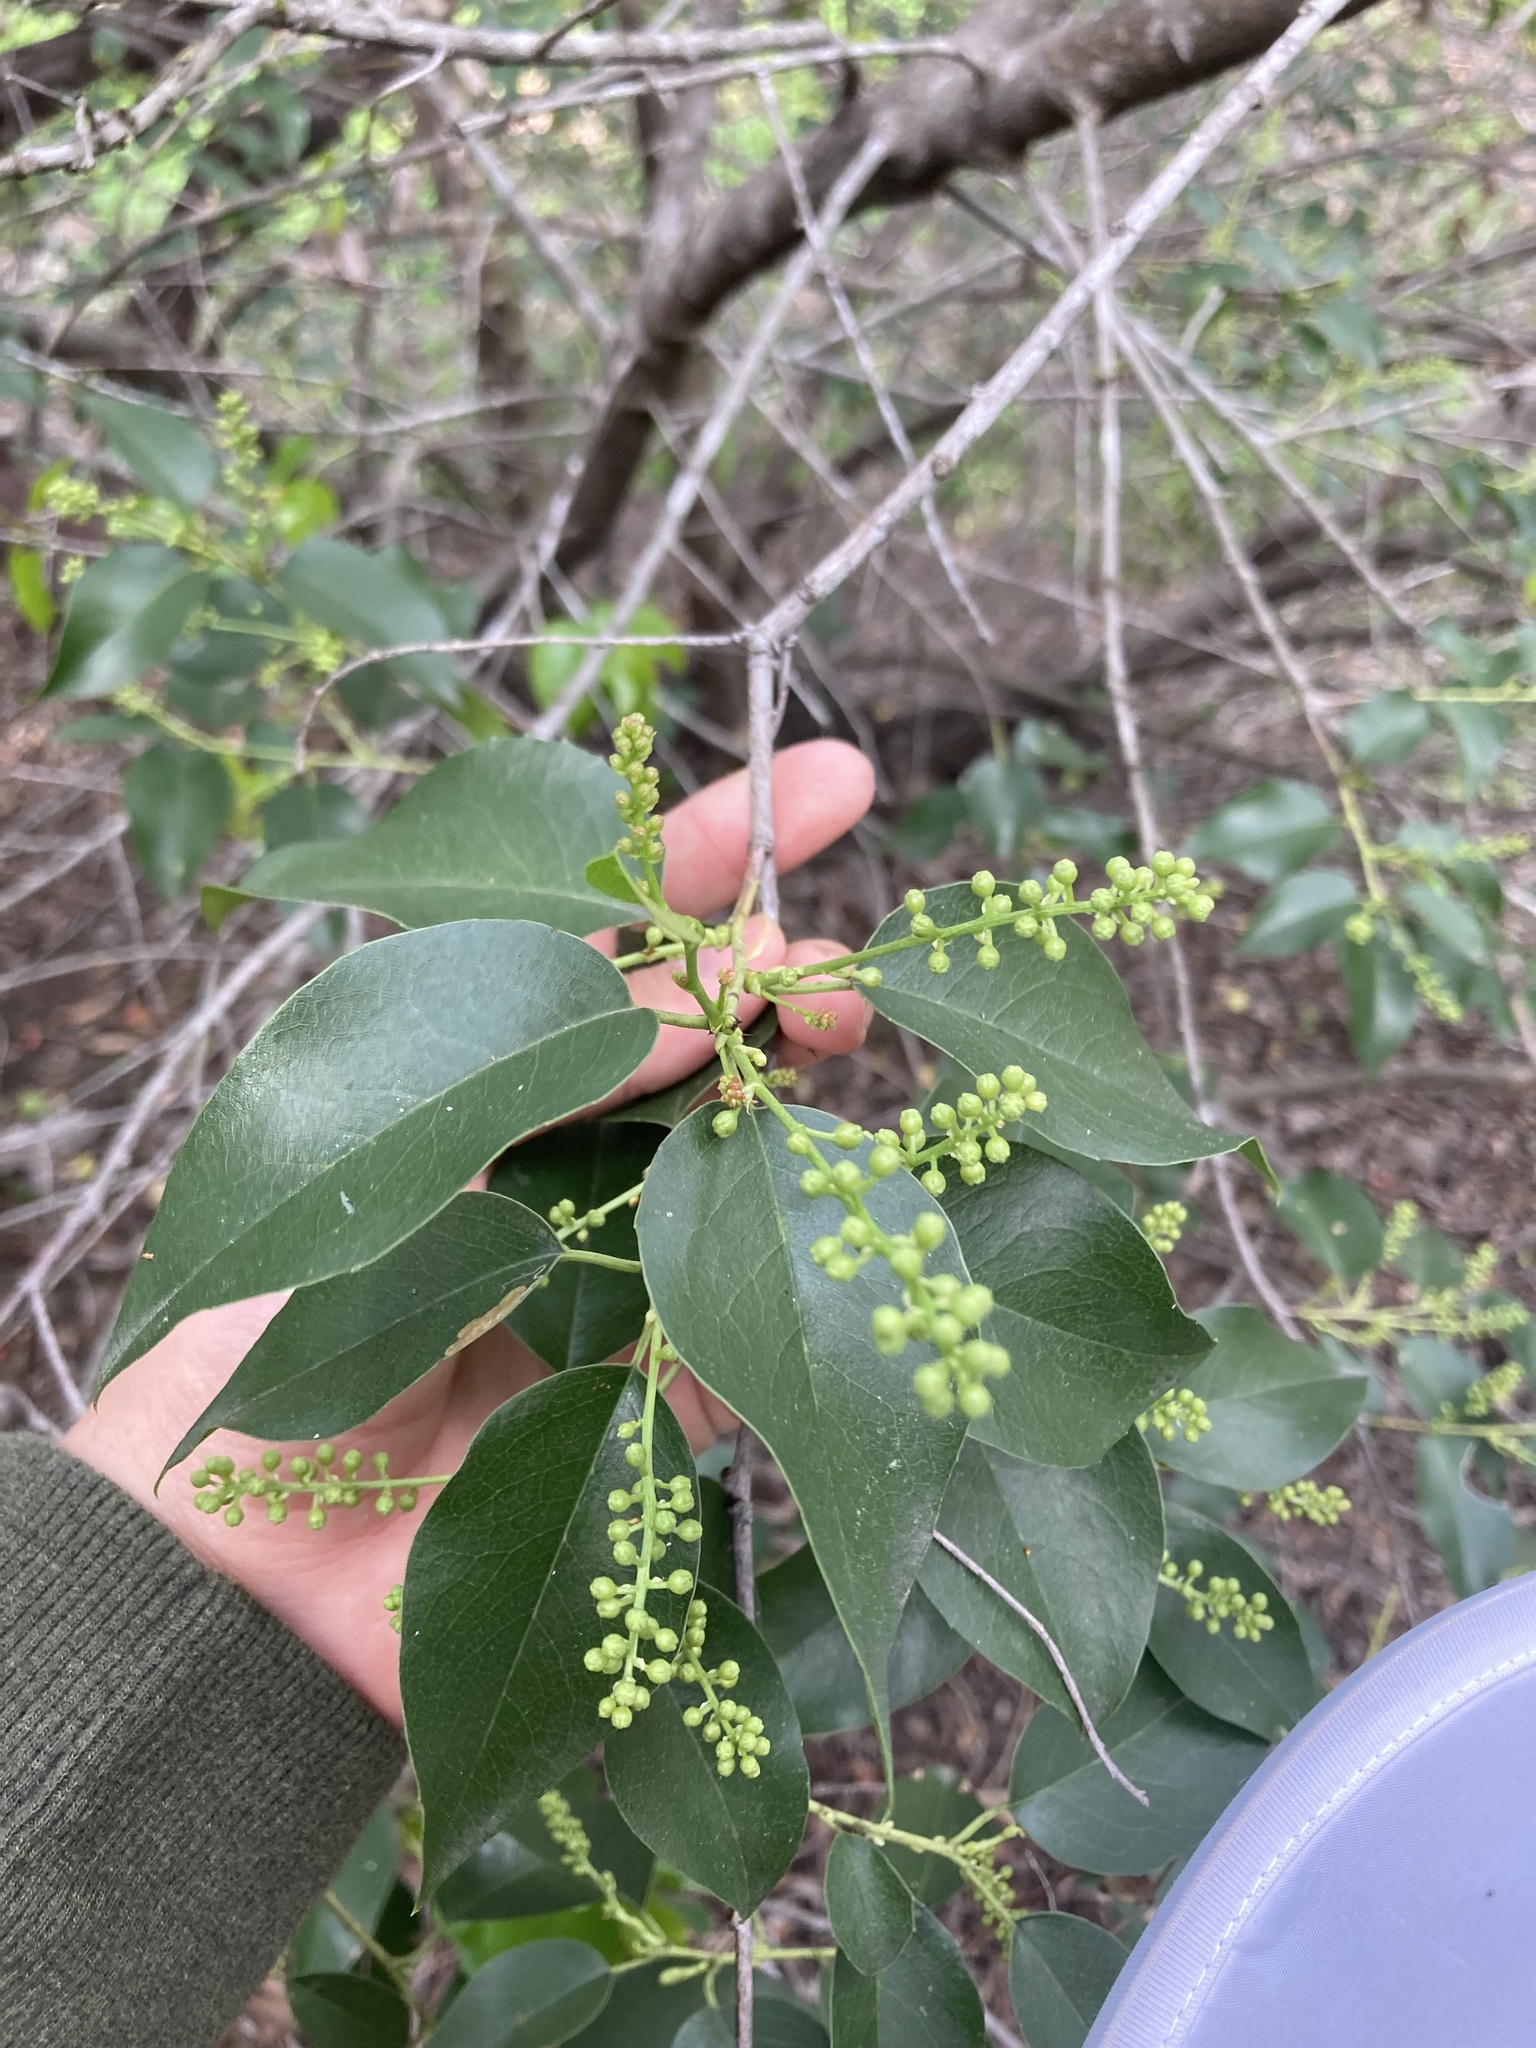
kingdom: Plantae
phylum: Tracheophyta
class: Magnoliopsida
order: Rosales
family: Rosaceae
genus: Prunus
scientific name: Prunus ilicifolia
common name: Hollyleaf cherry
